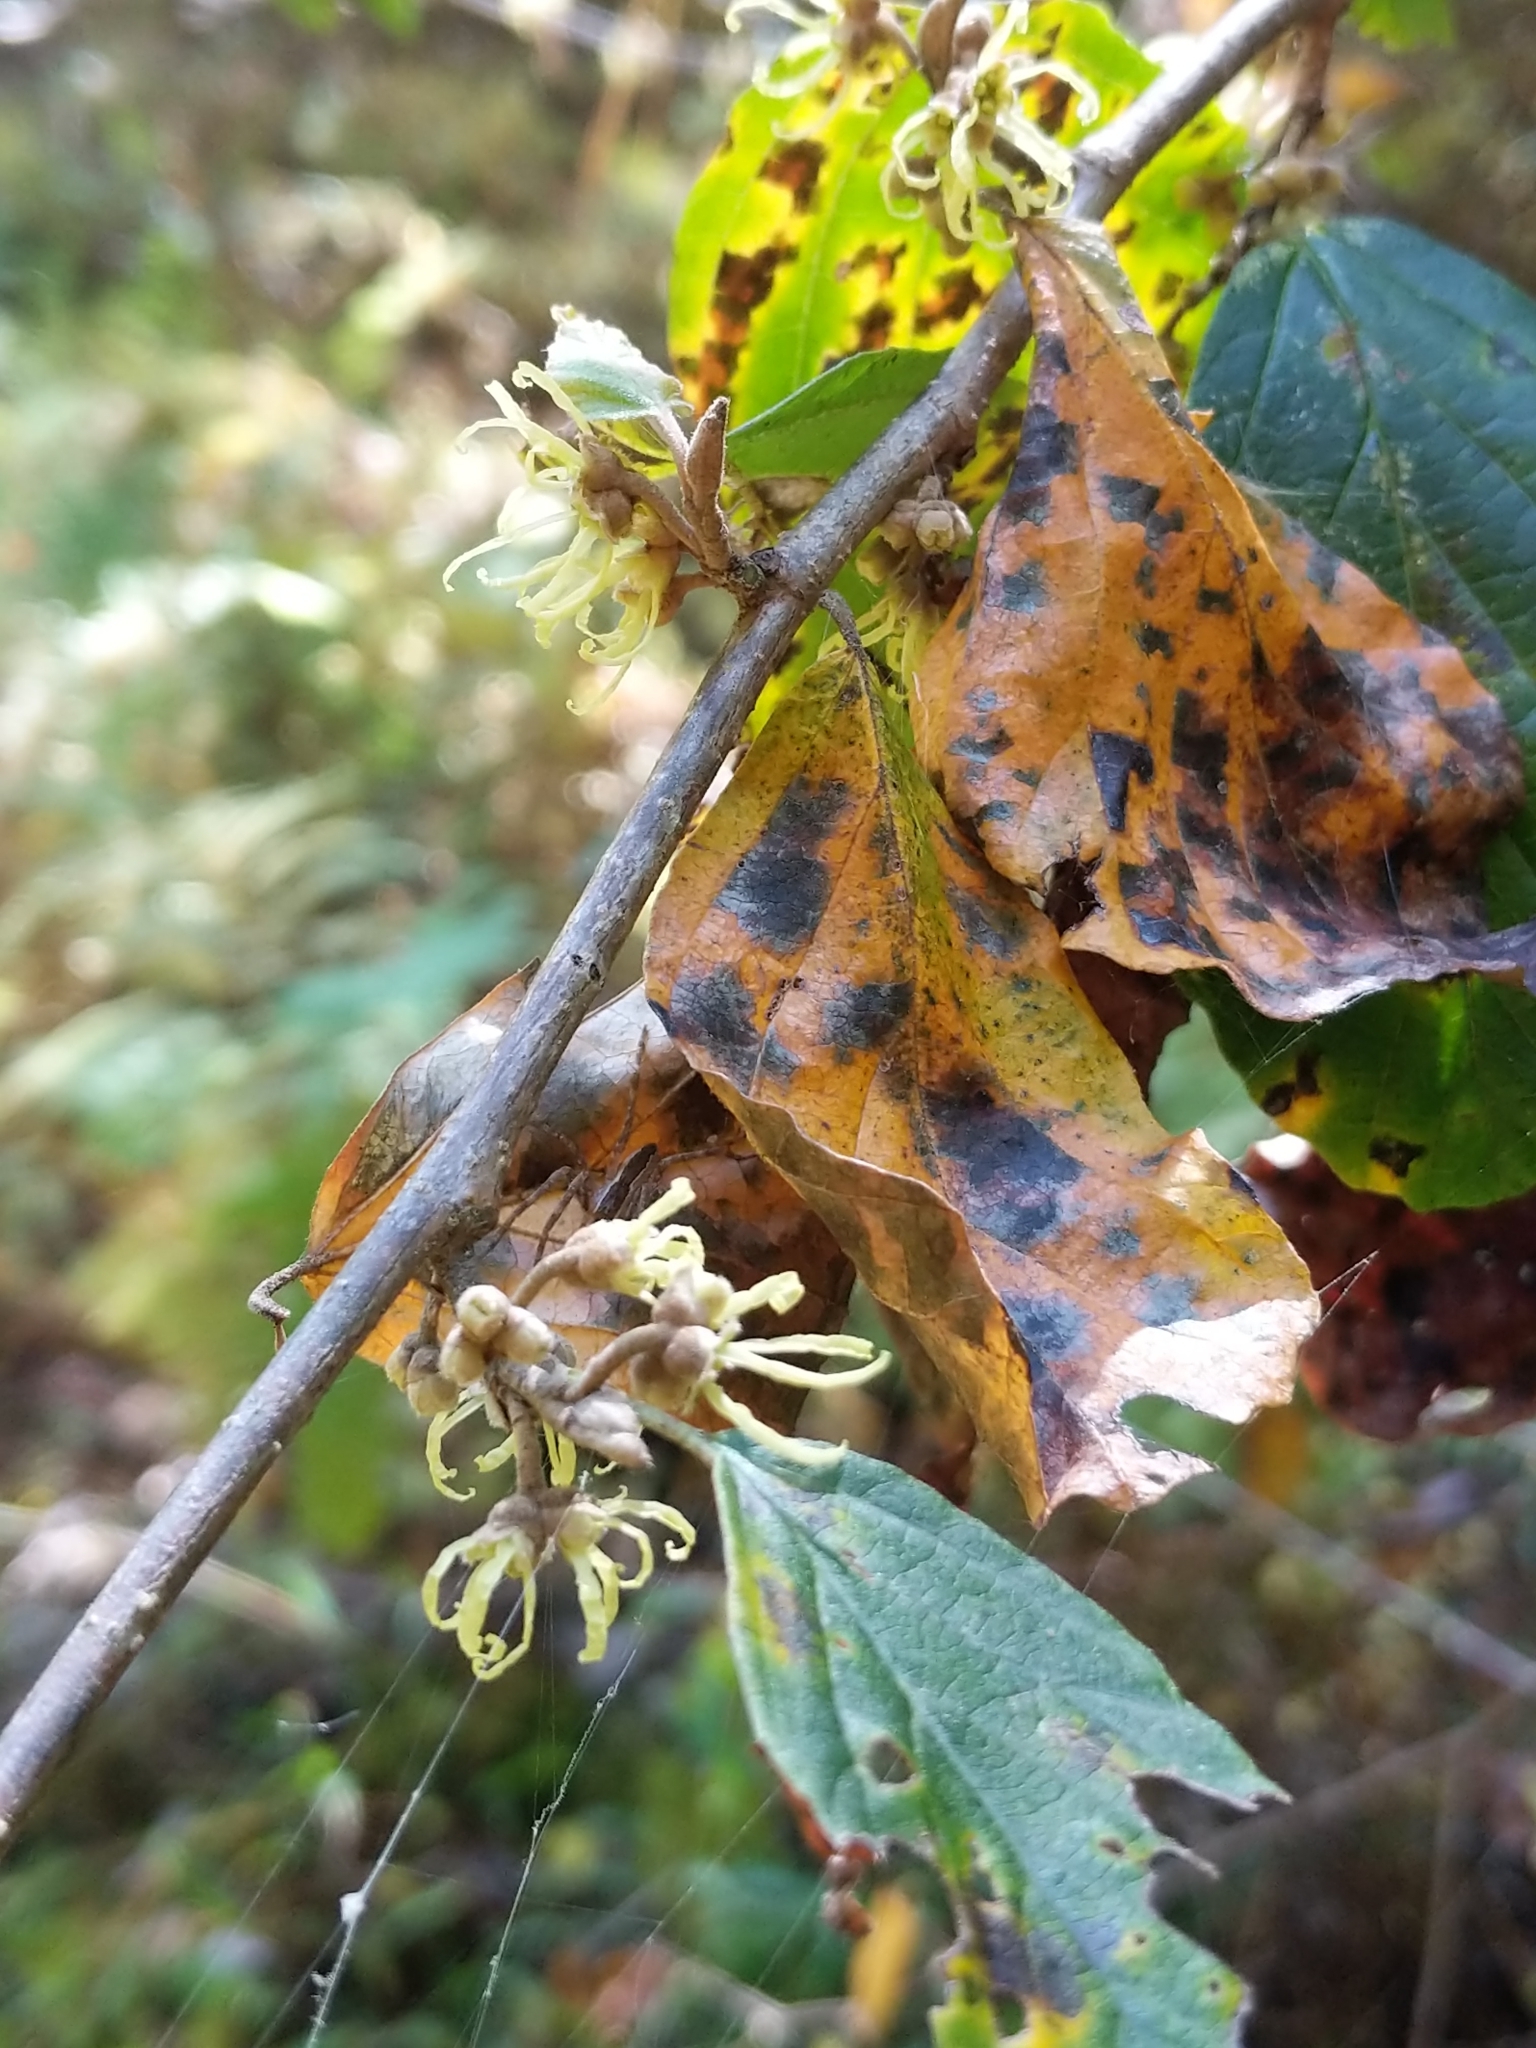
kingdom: Plantae
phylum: Tracheophyta
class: Magnoliopsida
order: Saxifragales
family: Hamamelidaceae
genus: Hamamelis
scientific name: Hamamelis virginiana
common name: Witch-hazel
